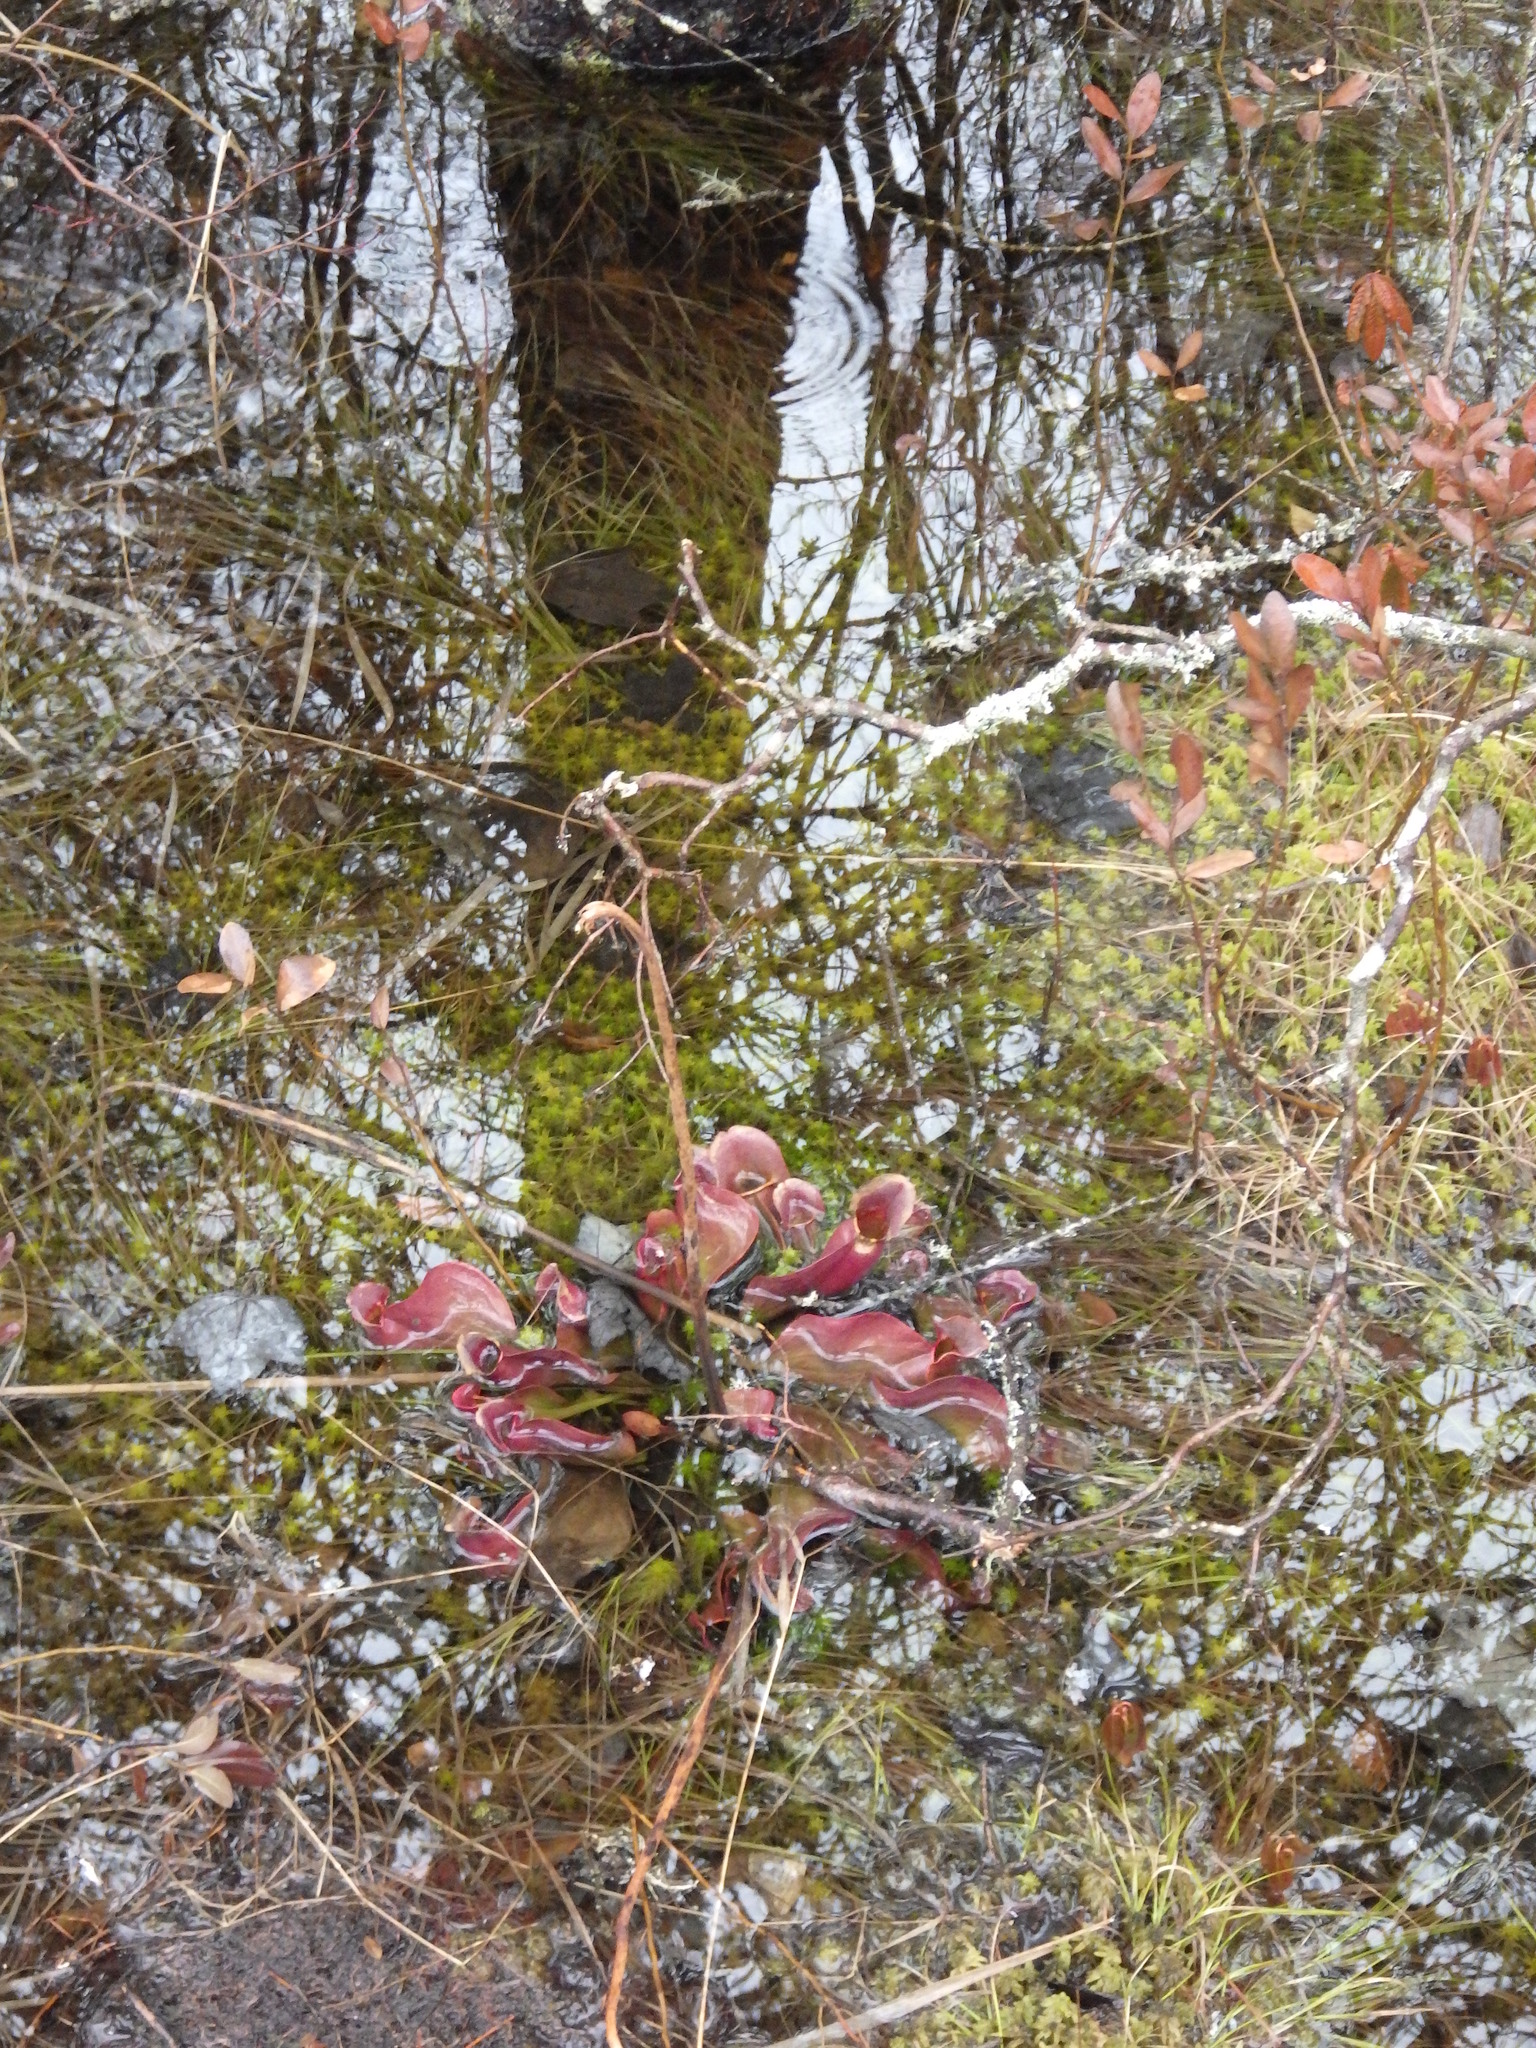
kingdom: Plantae
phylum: Tracheophyta
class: Magnoliopsida
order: Ericales
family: Sarraceniaceae
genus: Sarracenia
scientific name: Sarracenia purpurea
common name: Pitcherplant
